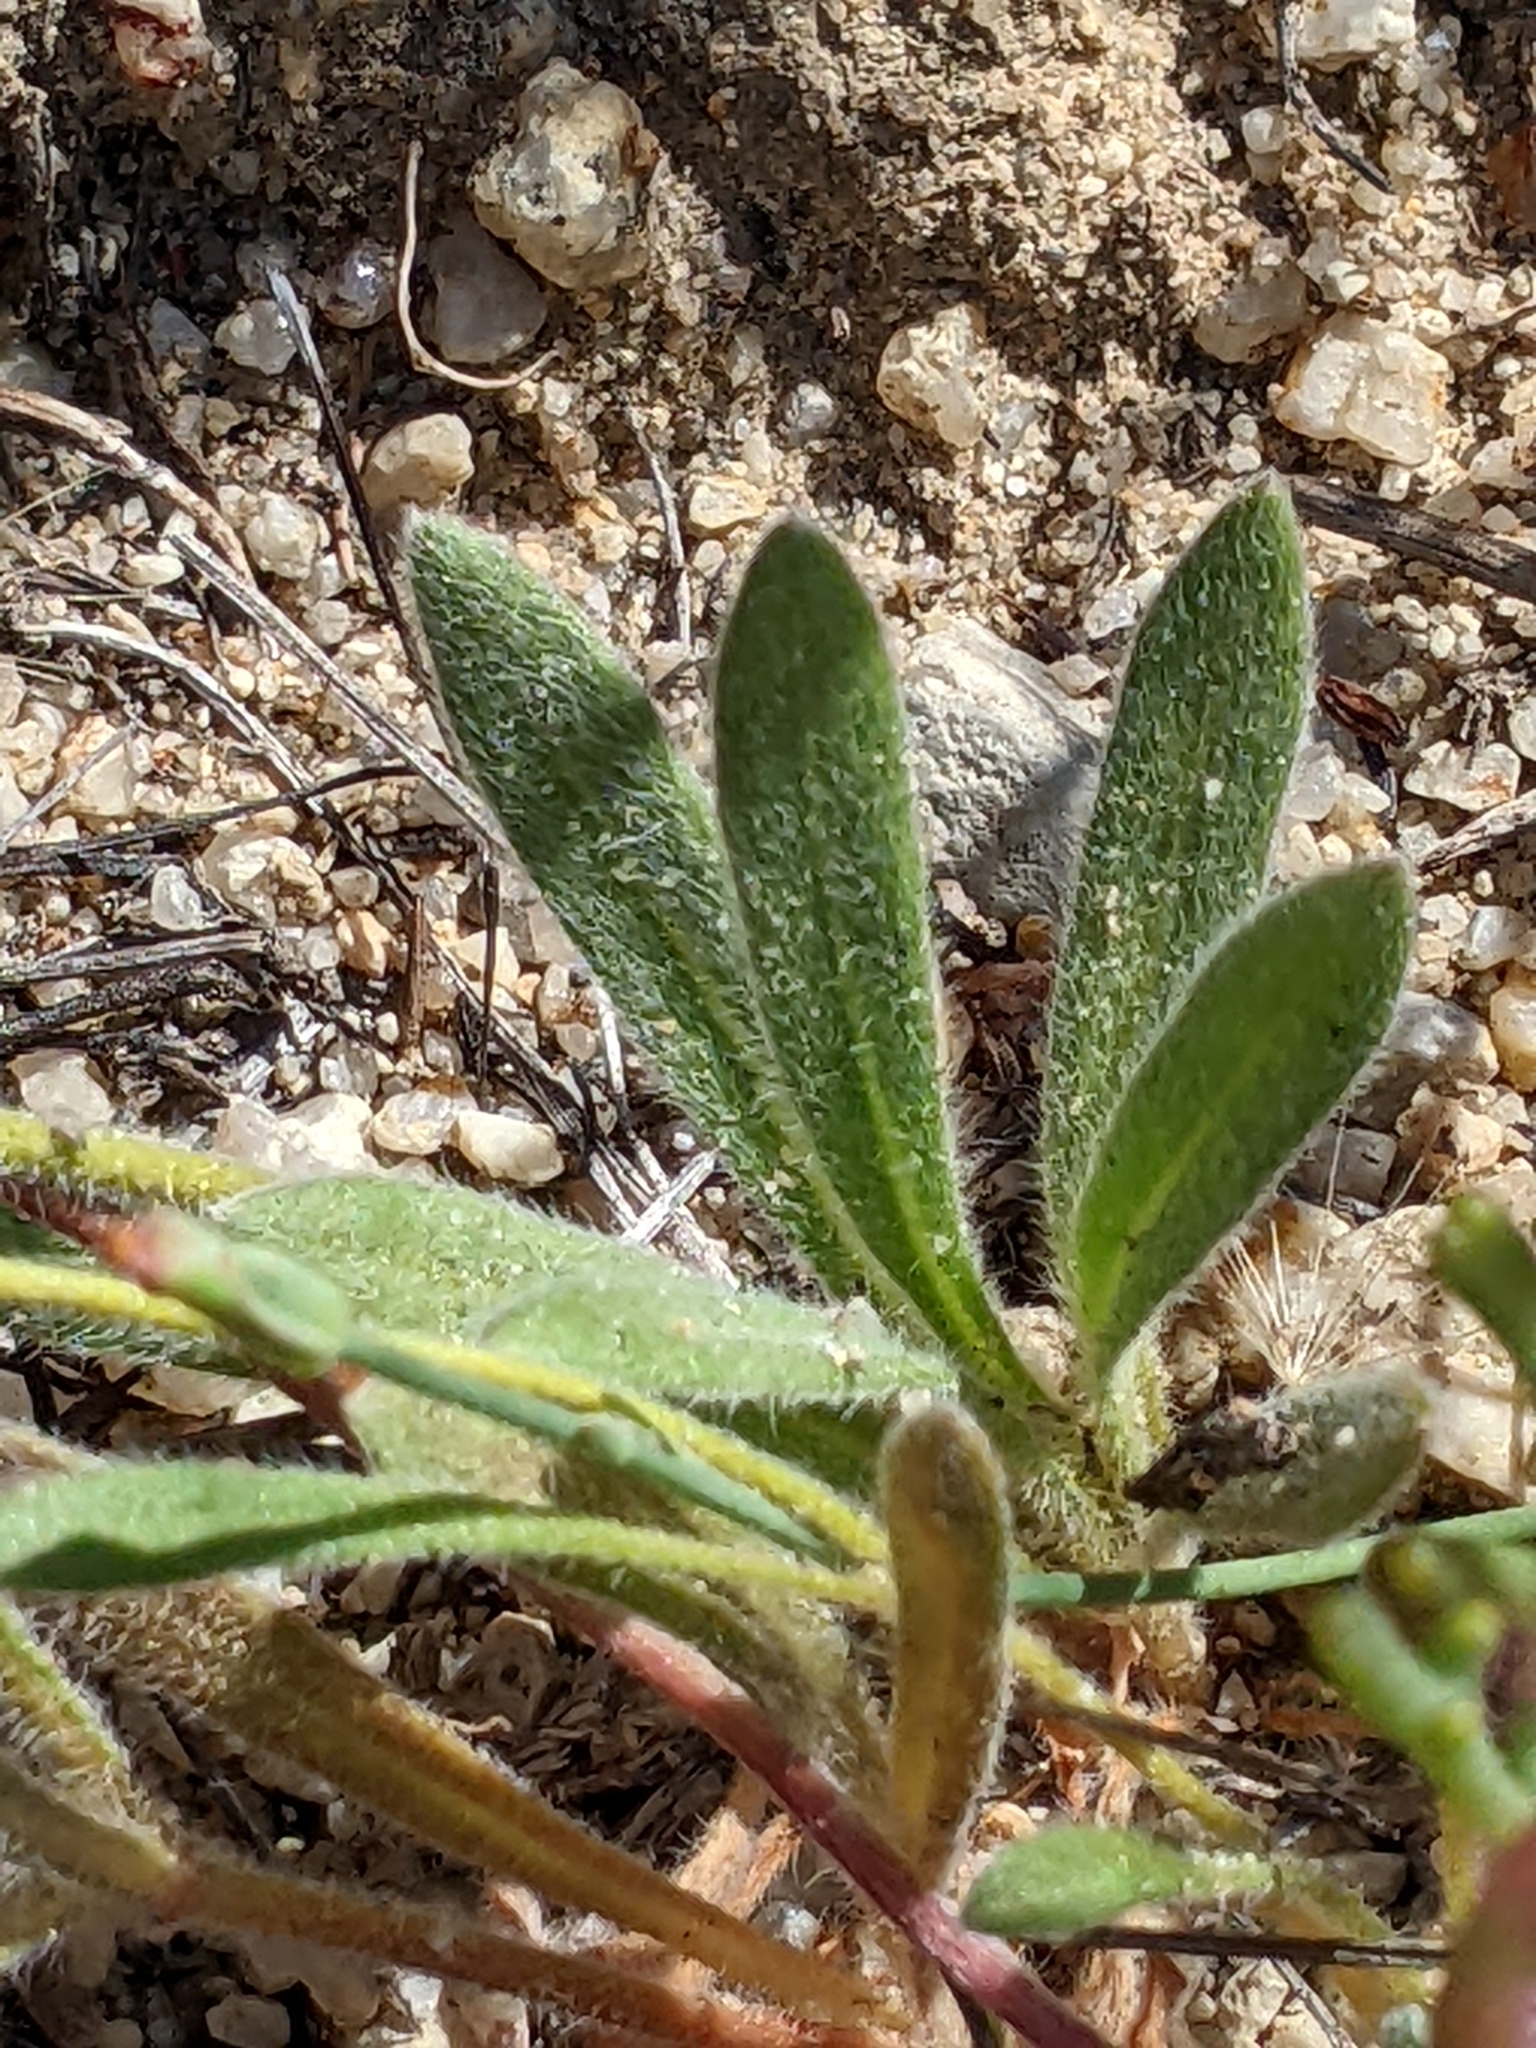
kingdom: Plantae
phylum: Tracheophyta
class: Magnoliopsida
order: Caryophyllales
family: Polygonaceae
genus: Chorizanthe
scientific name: Chorizanthe douglasii
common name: Douglas's spineflower
